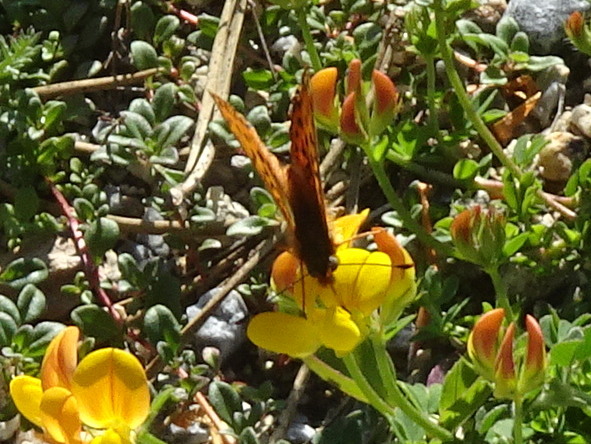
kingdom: Animalia
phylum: Arthropoda
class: Insecta
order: Lepidoptera
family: Nymphalidae
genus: Clossiana
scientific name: Clossiana euphrosyne
